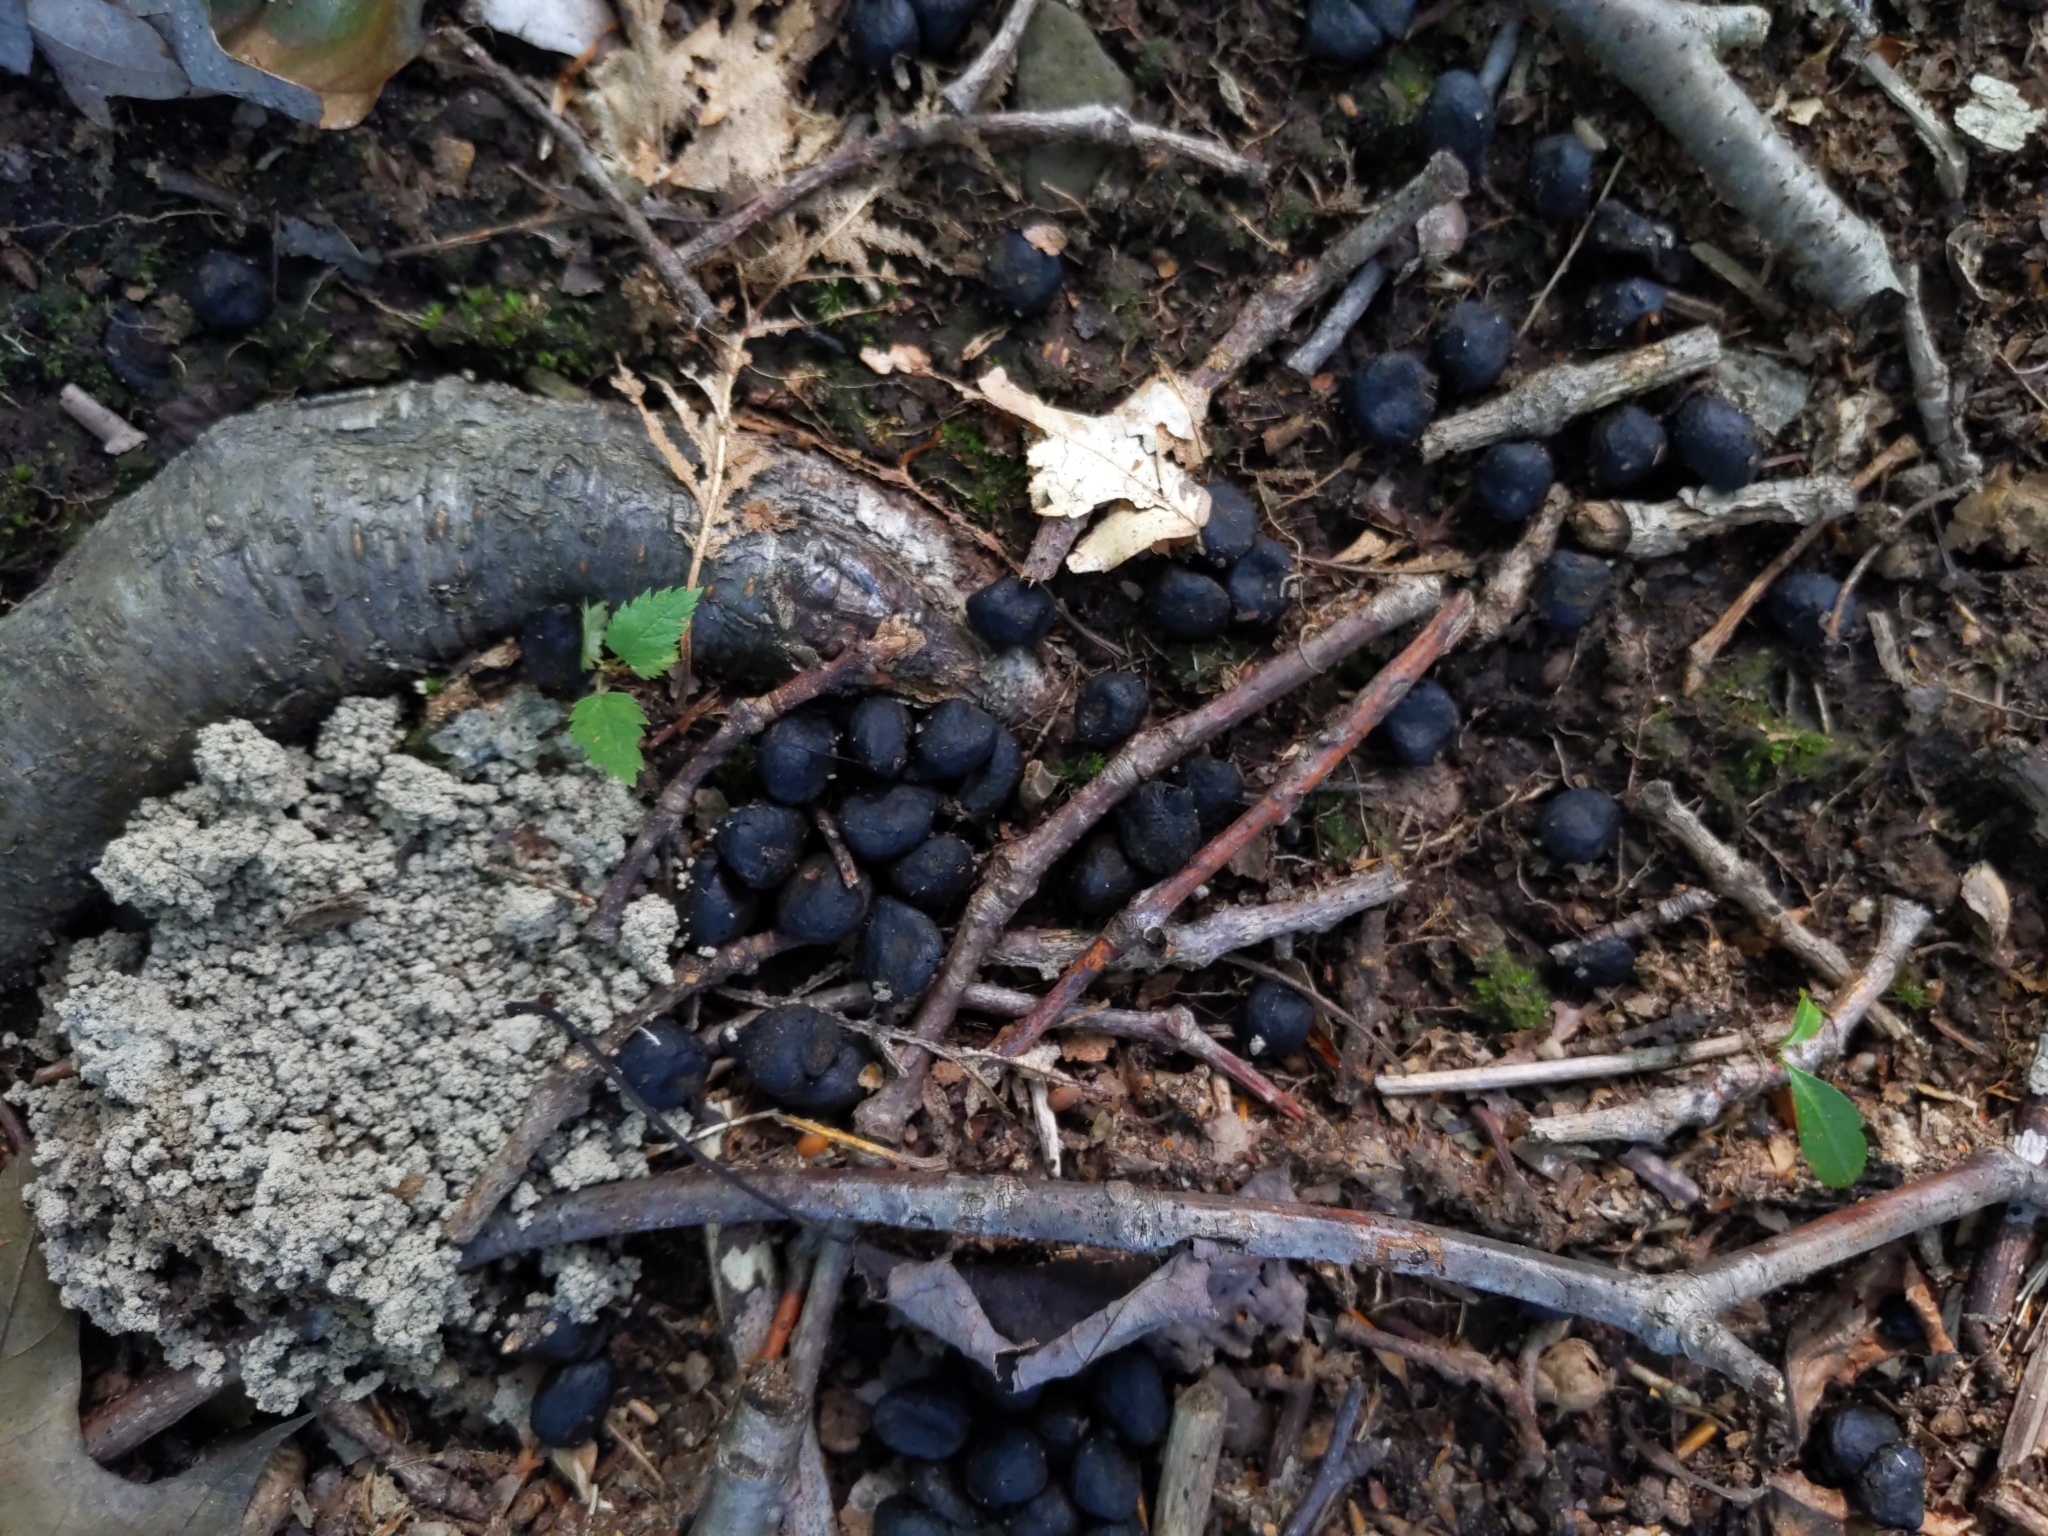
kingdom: Animalia
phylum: Chordata
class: Mammalia
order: Artiodactyla
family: Cervidae
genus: Odocoileus
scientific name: Odocoileus virginianus
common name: White-tailed deer
